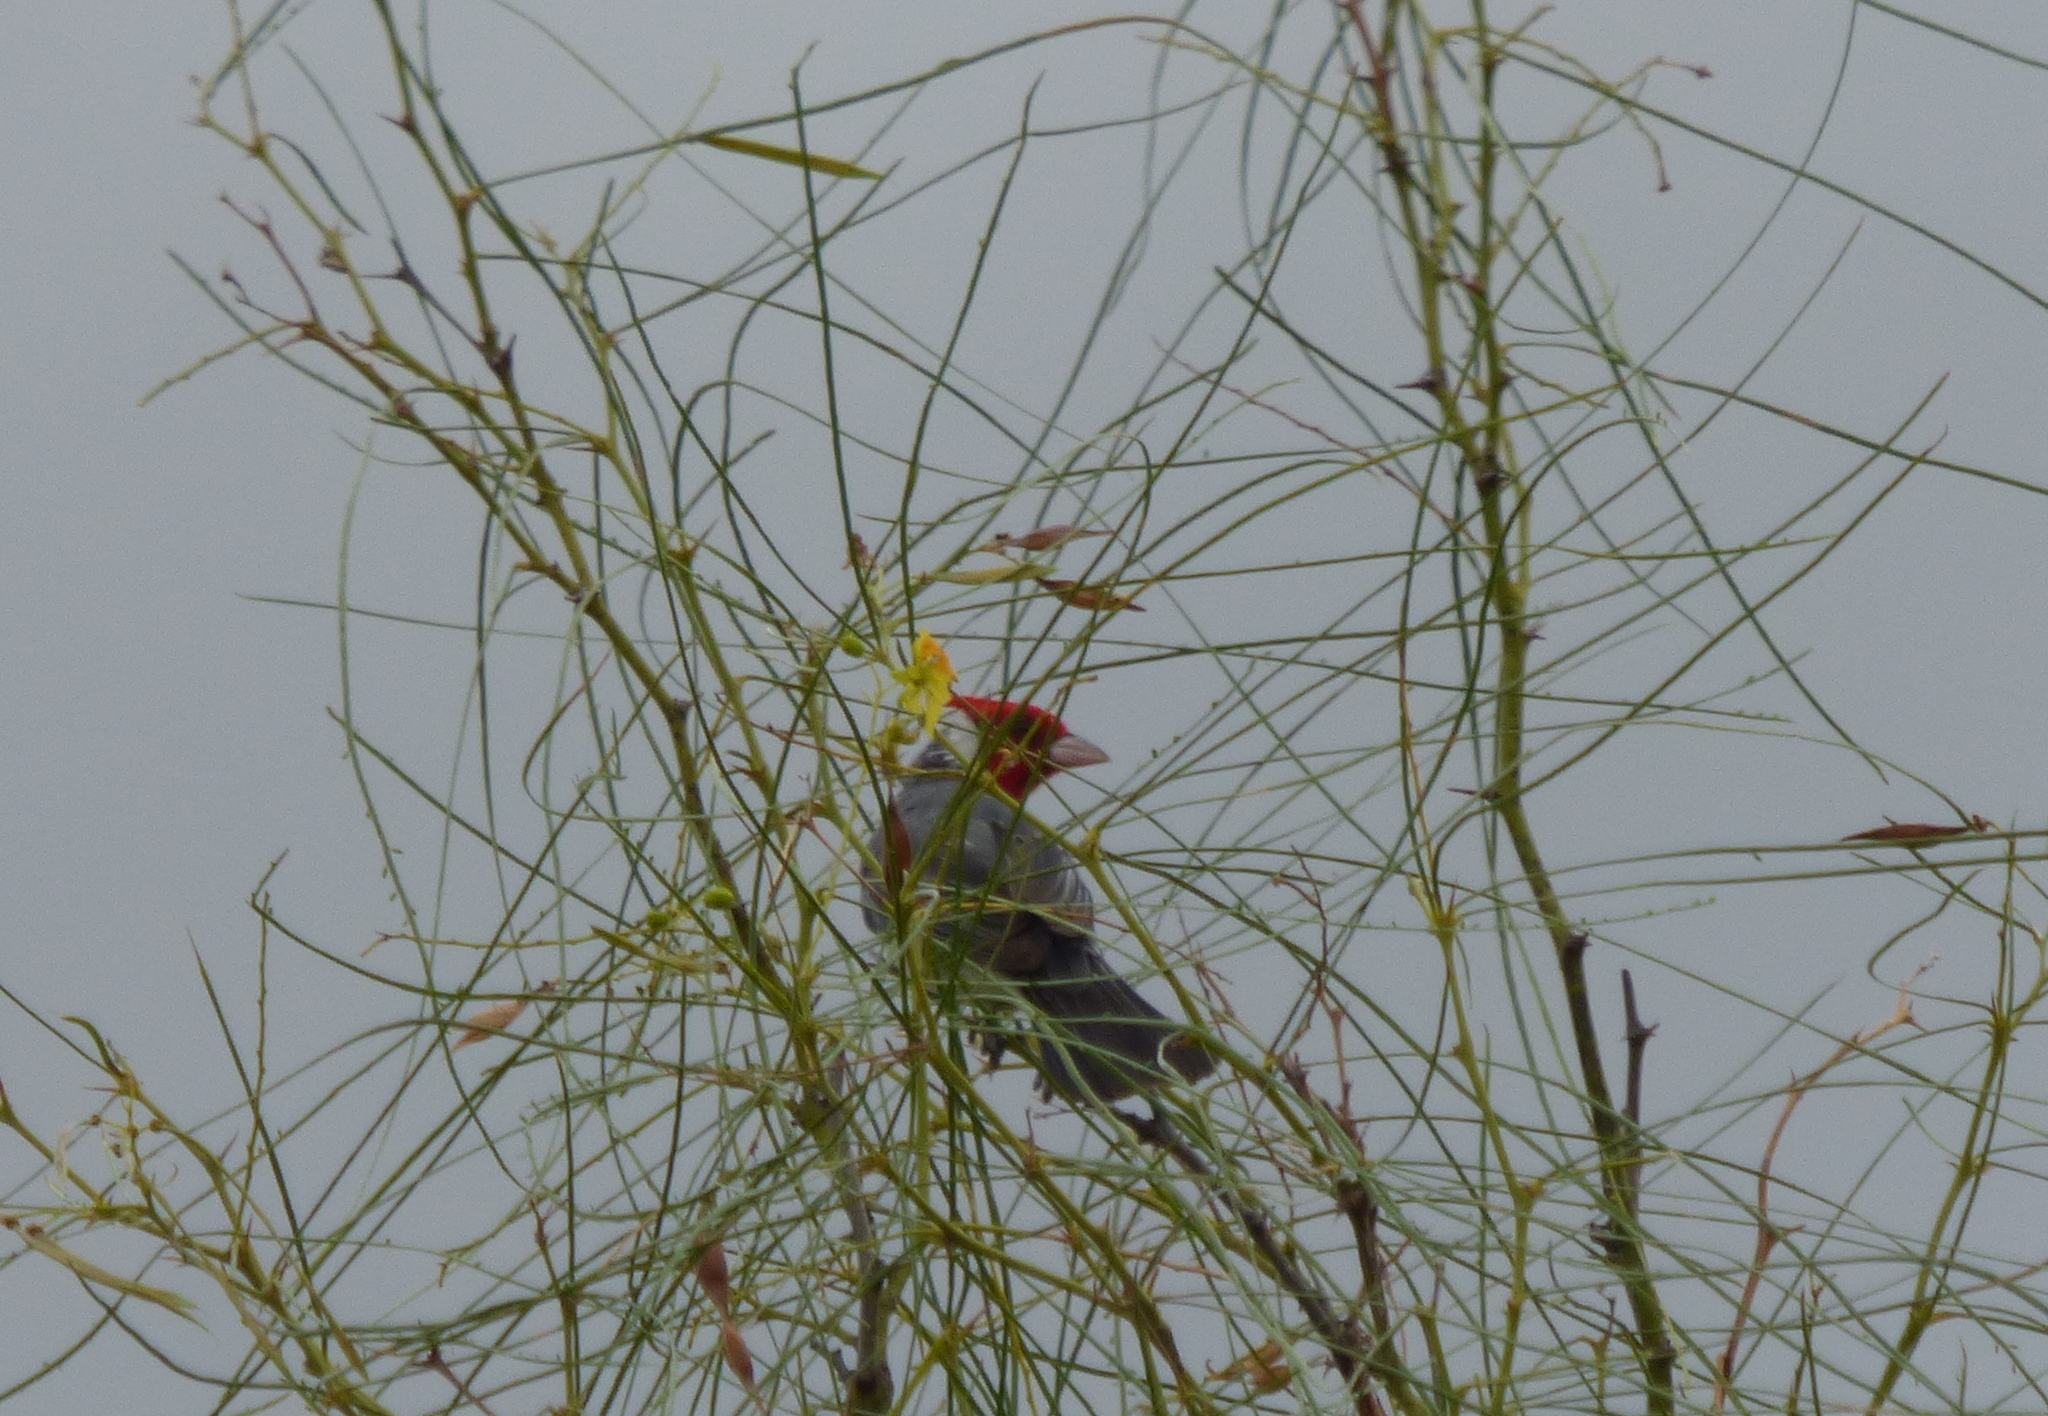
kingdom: Animalia
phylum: Chordata
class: Aves
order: Passeriformes
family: Thraupidae
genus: Paroaria
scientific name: Paroaria coronata
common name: Red-crested cardinal
